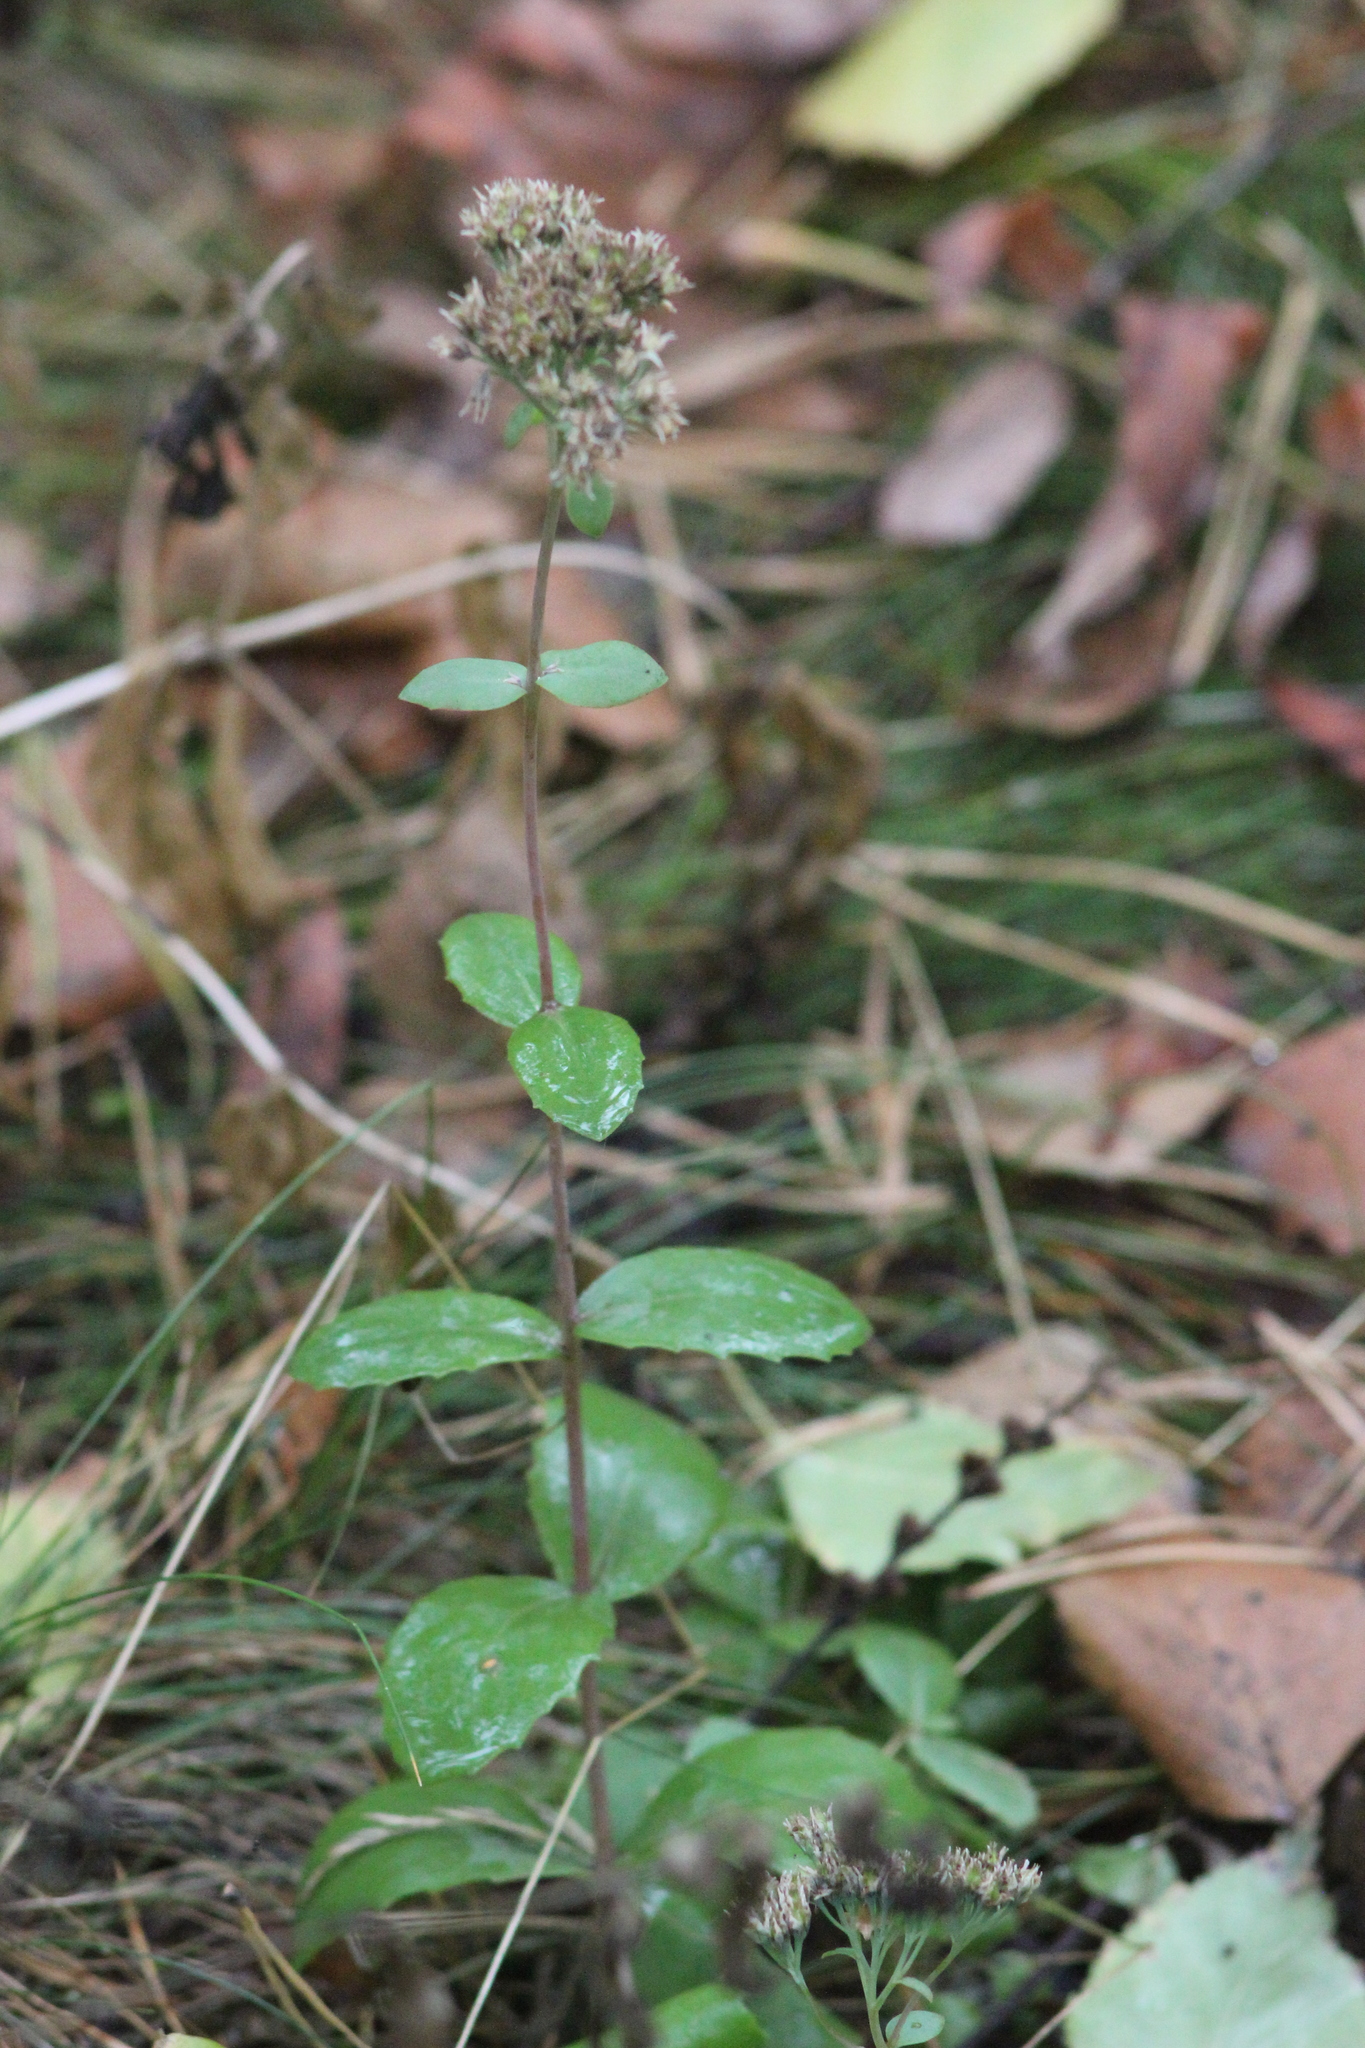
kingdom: Plantae
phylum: Tracheophyta
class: Magnoliopsida
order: Saxifragales
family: Crassulaceae
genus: Hylotelephium
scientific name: Hylotelephium maximum
